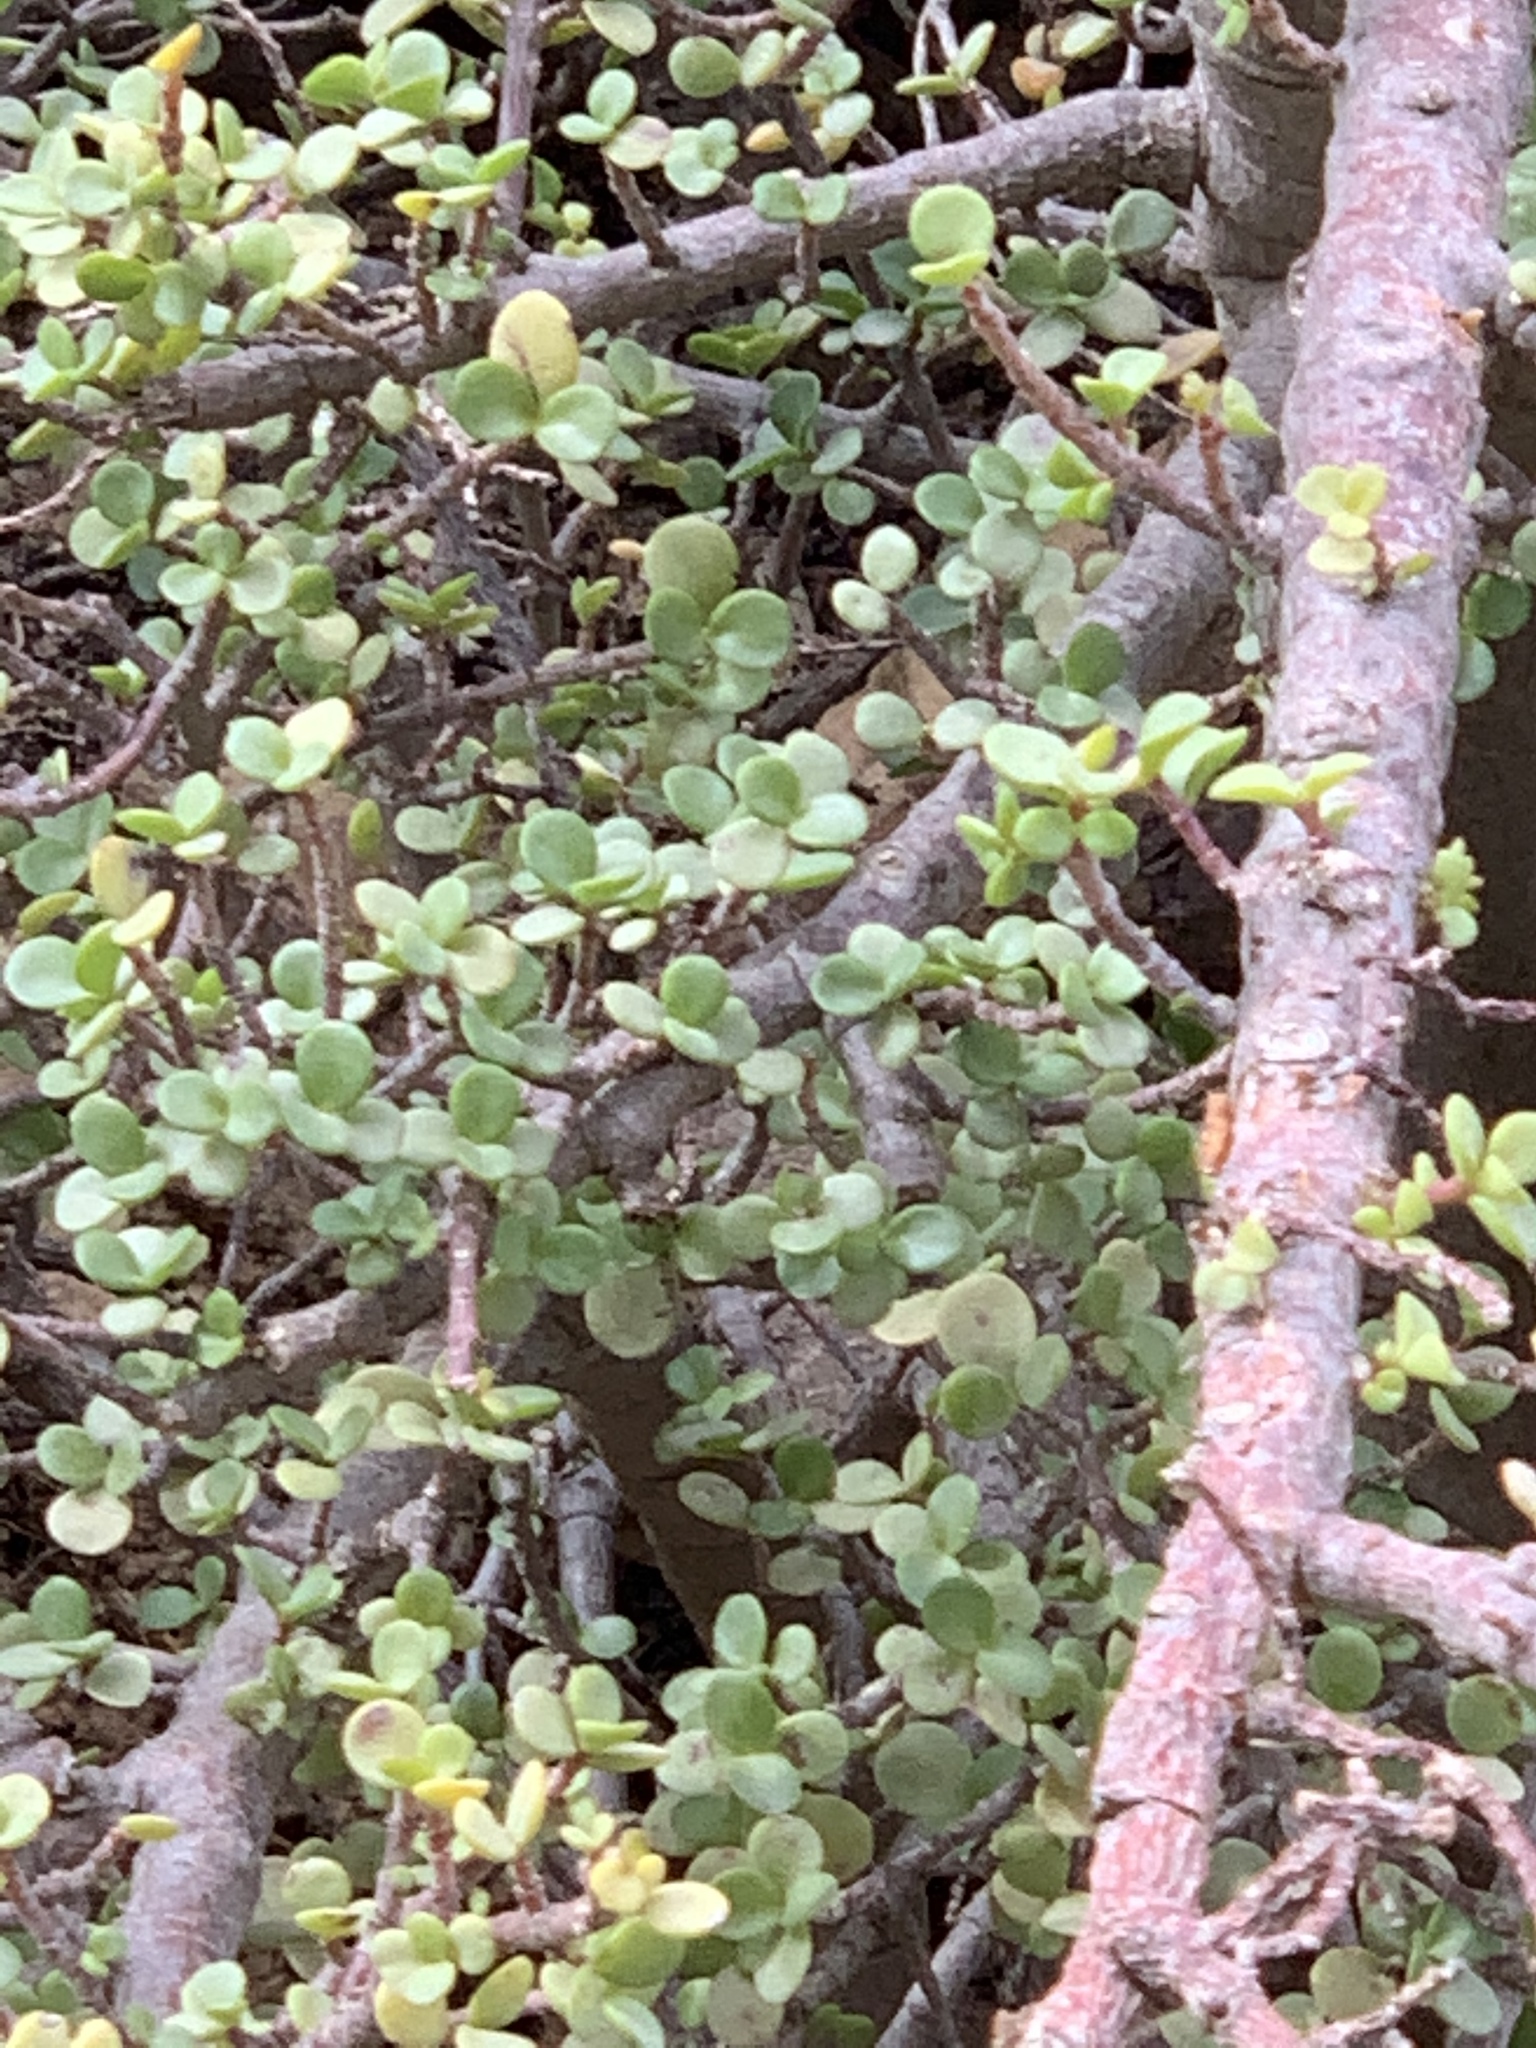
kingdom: Plantae
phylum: Tracheophyta
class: Magnoliopsida
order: Caryophyllales
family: Didiereaceae
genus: Portulacaria
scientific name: Portulacaria afra
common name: Elephant-bush
